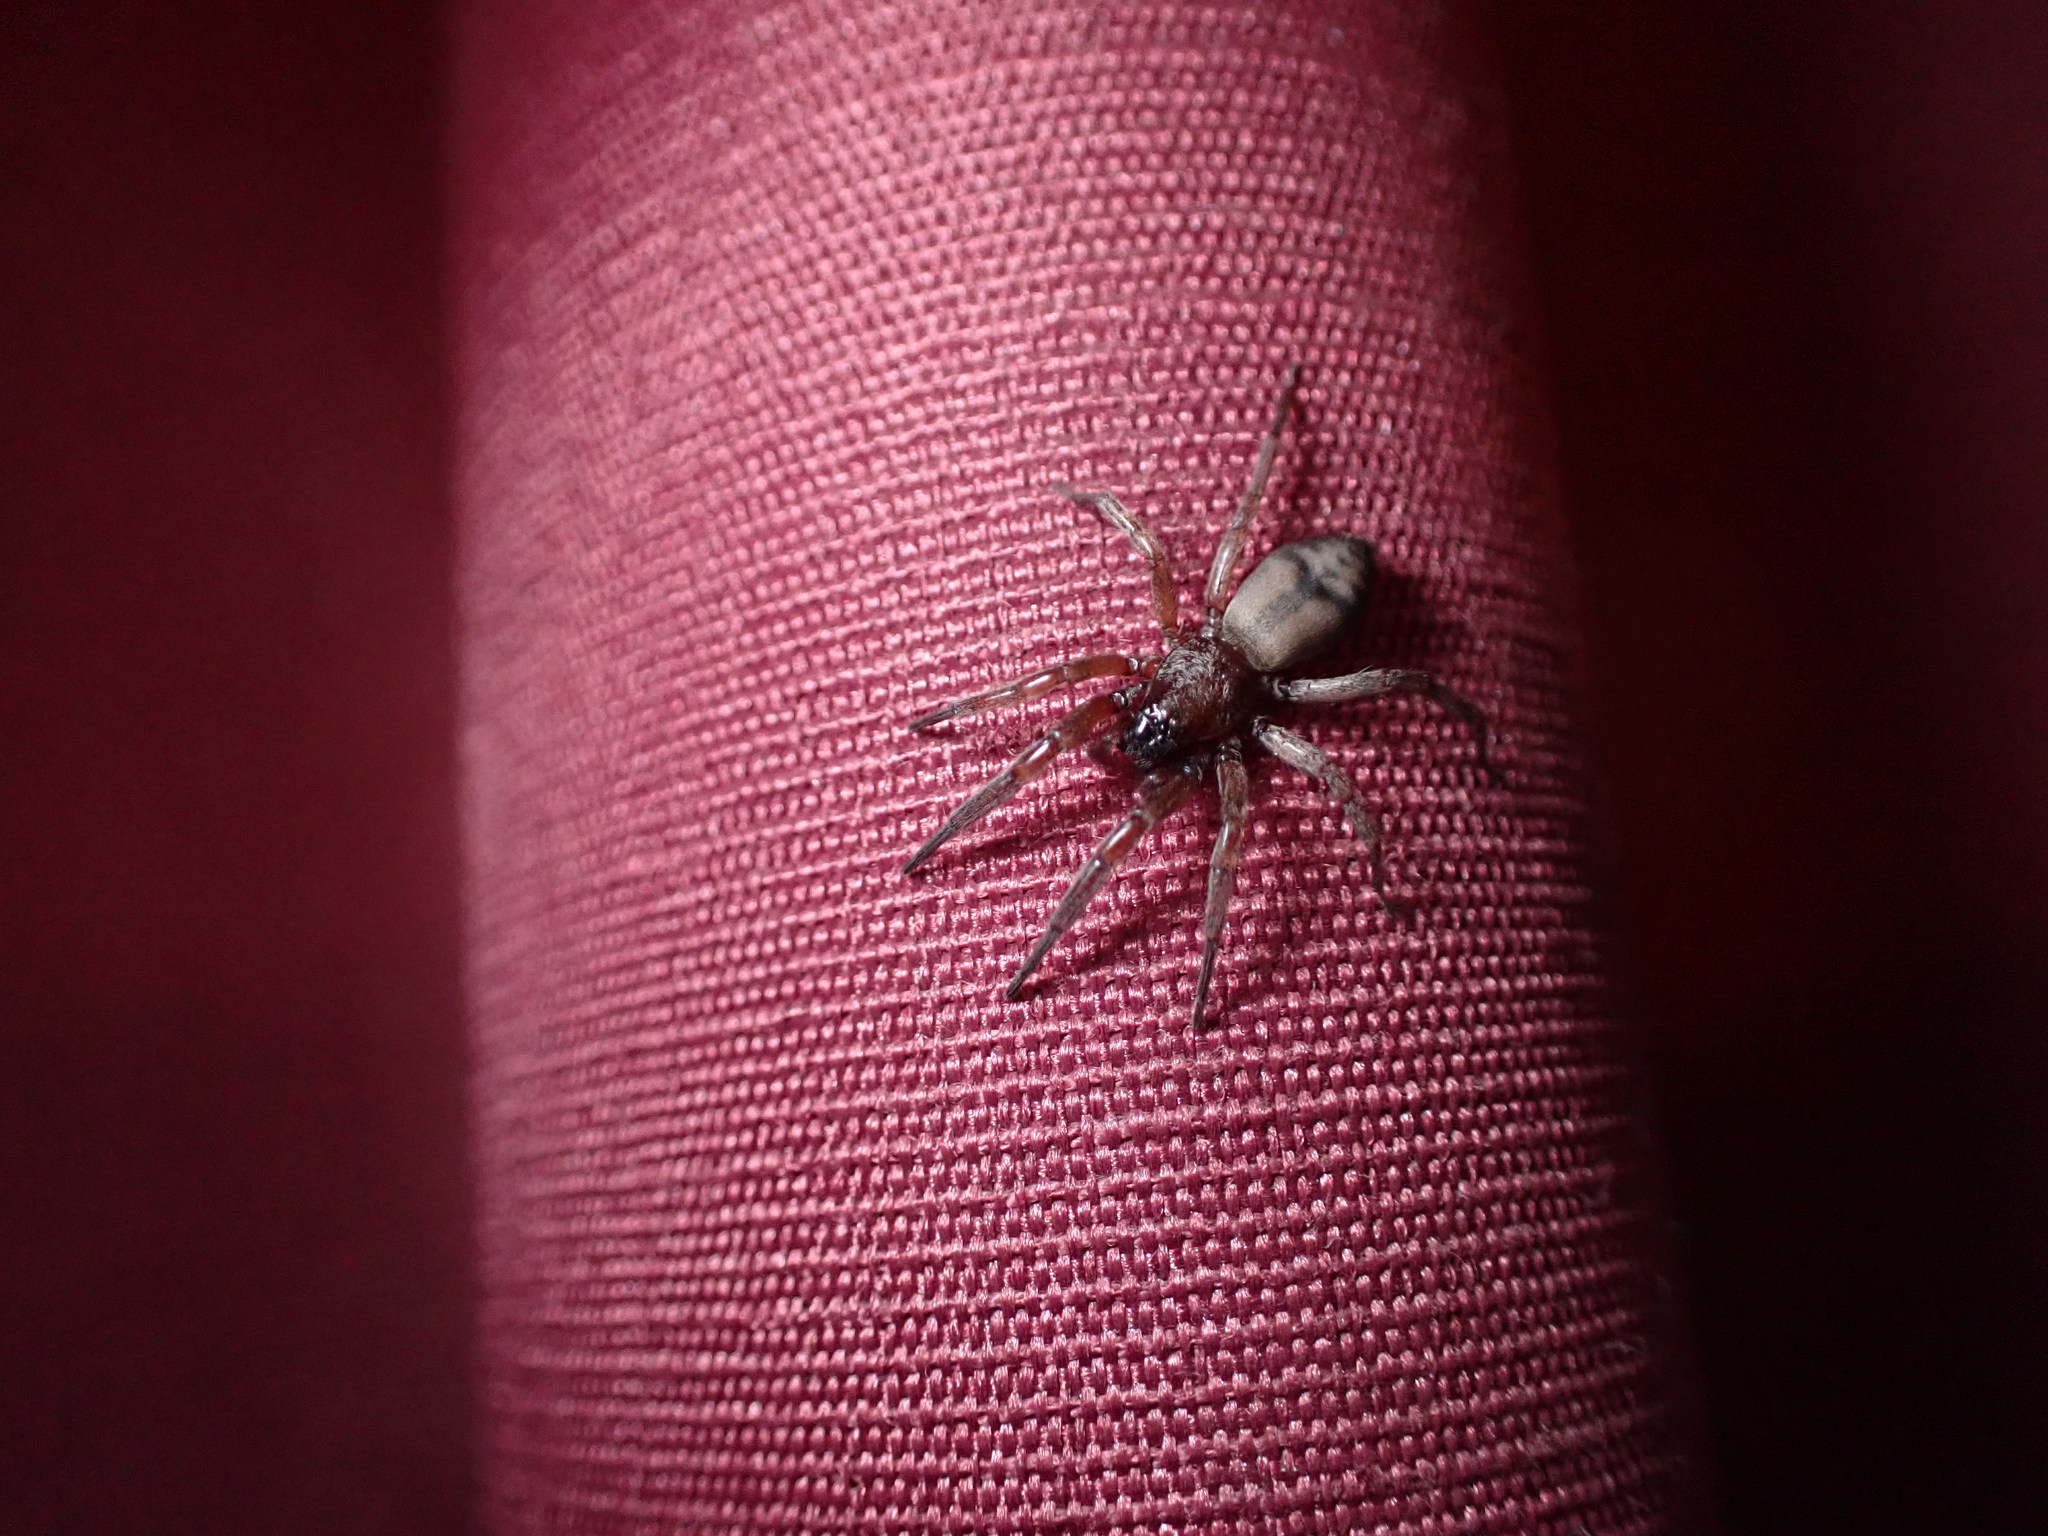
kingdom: Animalia
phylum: Arthropoda
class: Arachnida
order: Araneae
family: Gnaphosidae
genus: Intruda
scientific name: Intruda signata
